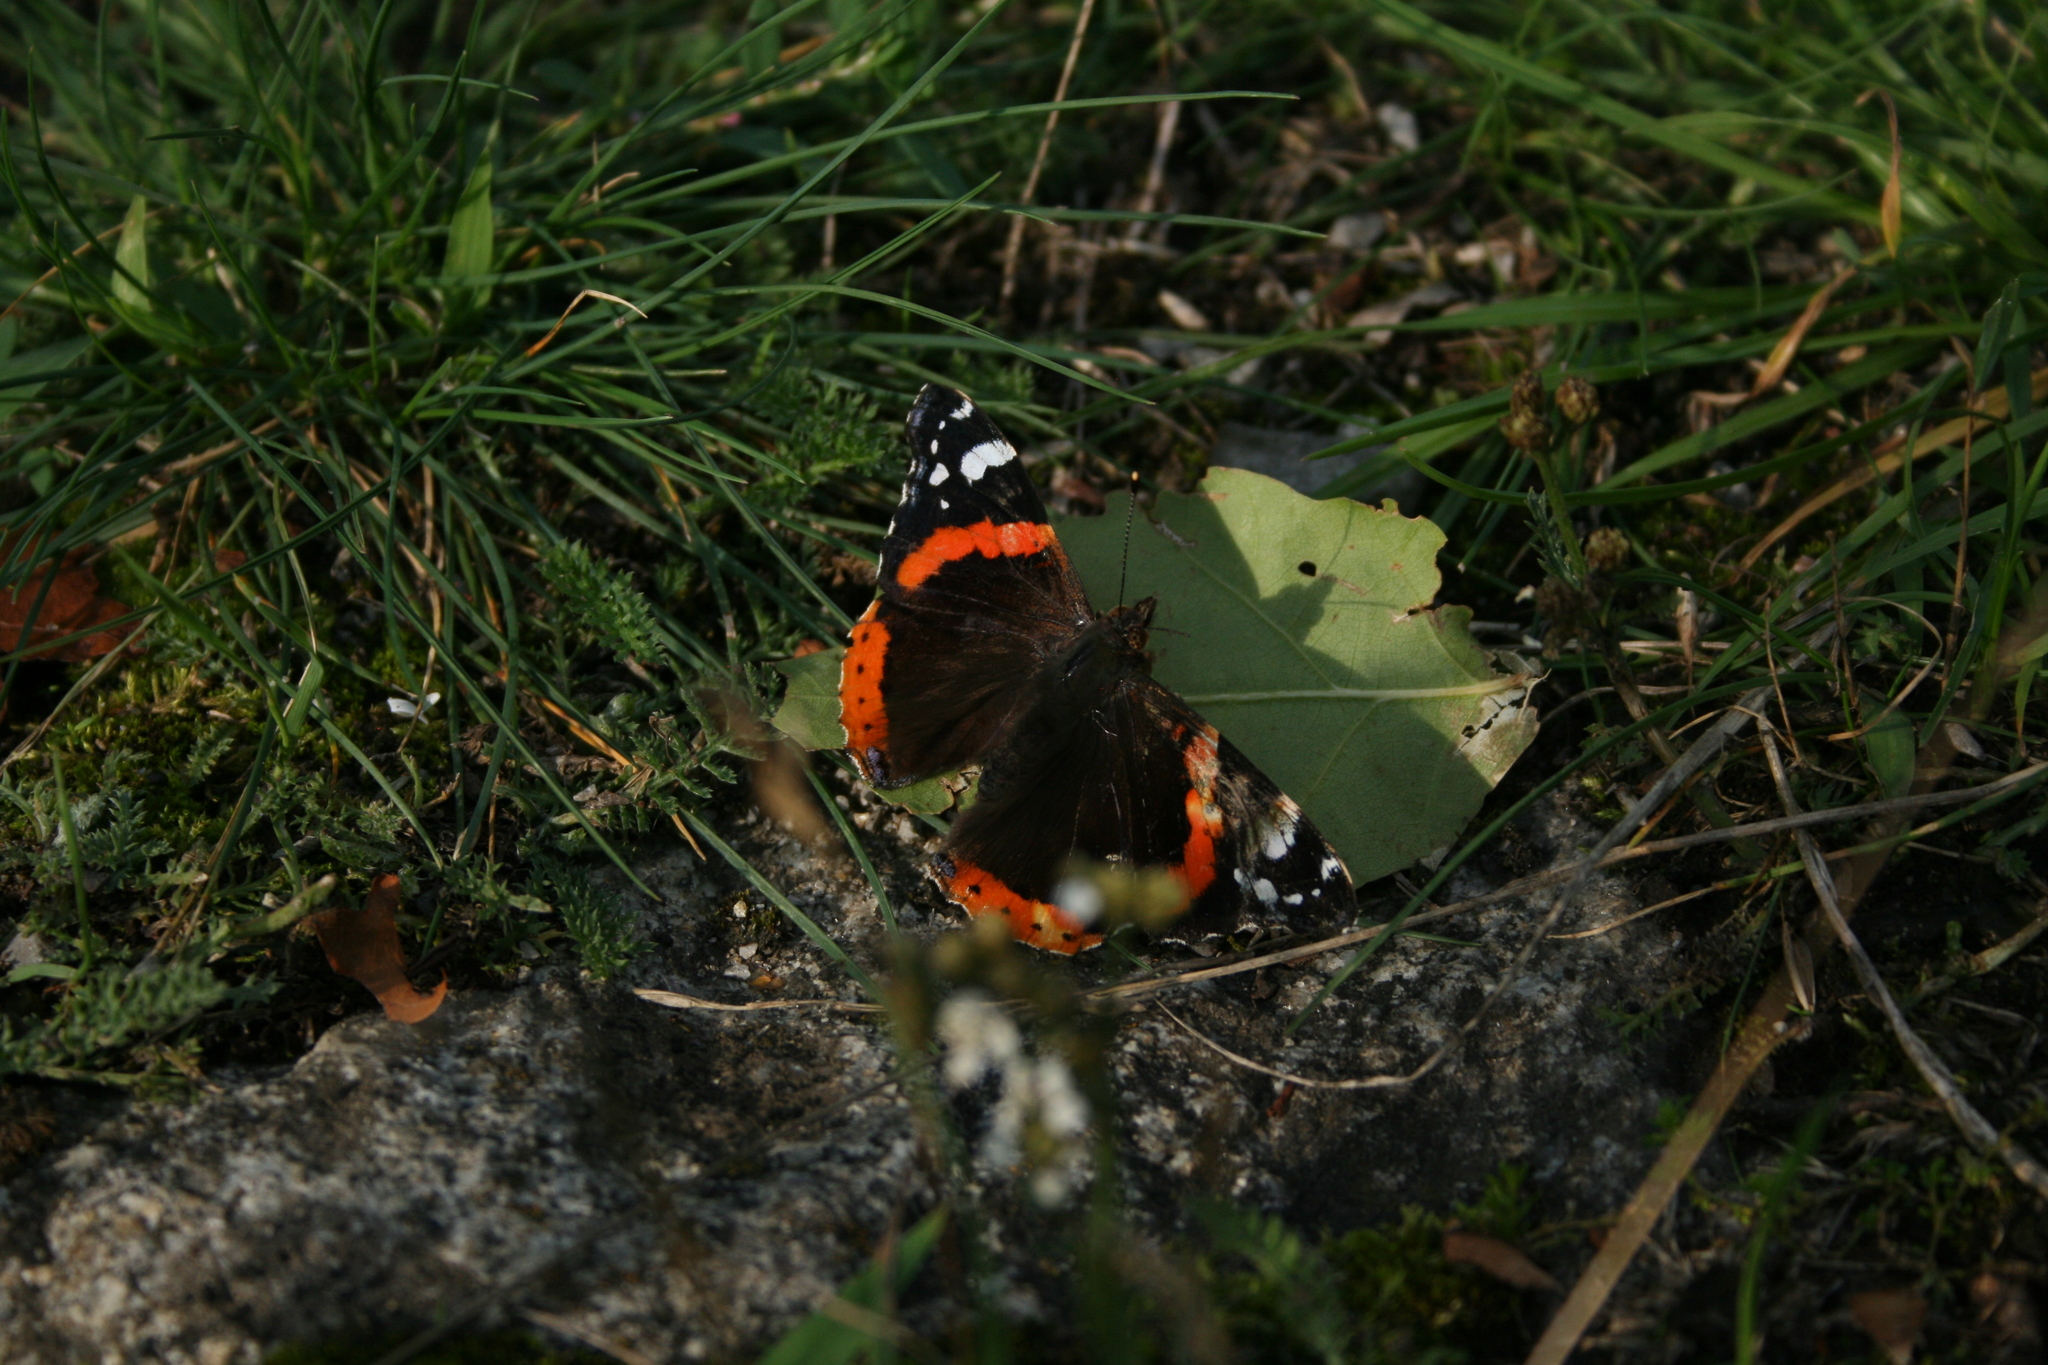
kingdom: Animalia
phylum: Arthropoda
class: Insecta
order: Lepidoptera
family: Nymphalidae
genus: Vanessa
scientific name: Vanessa atalanta
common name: Red admiral
